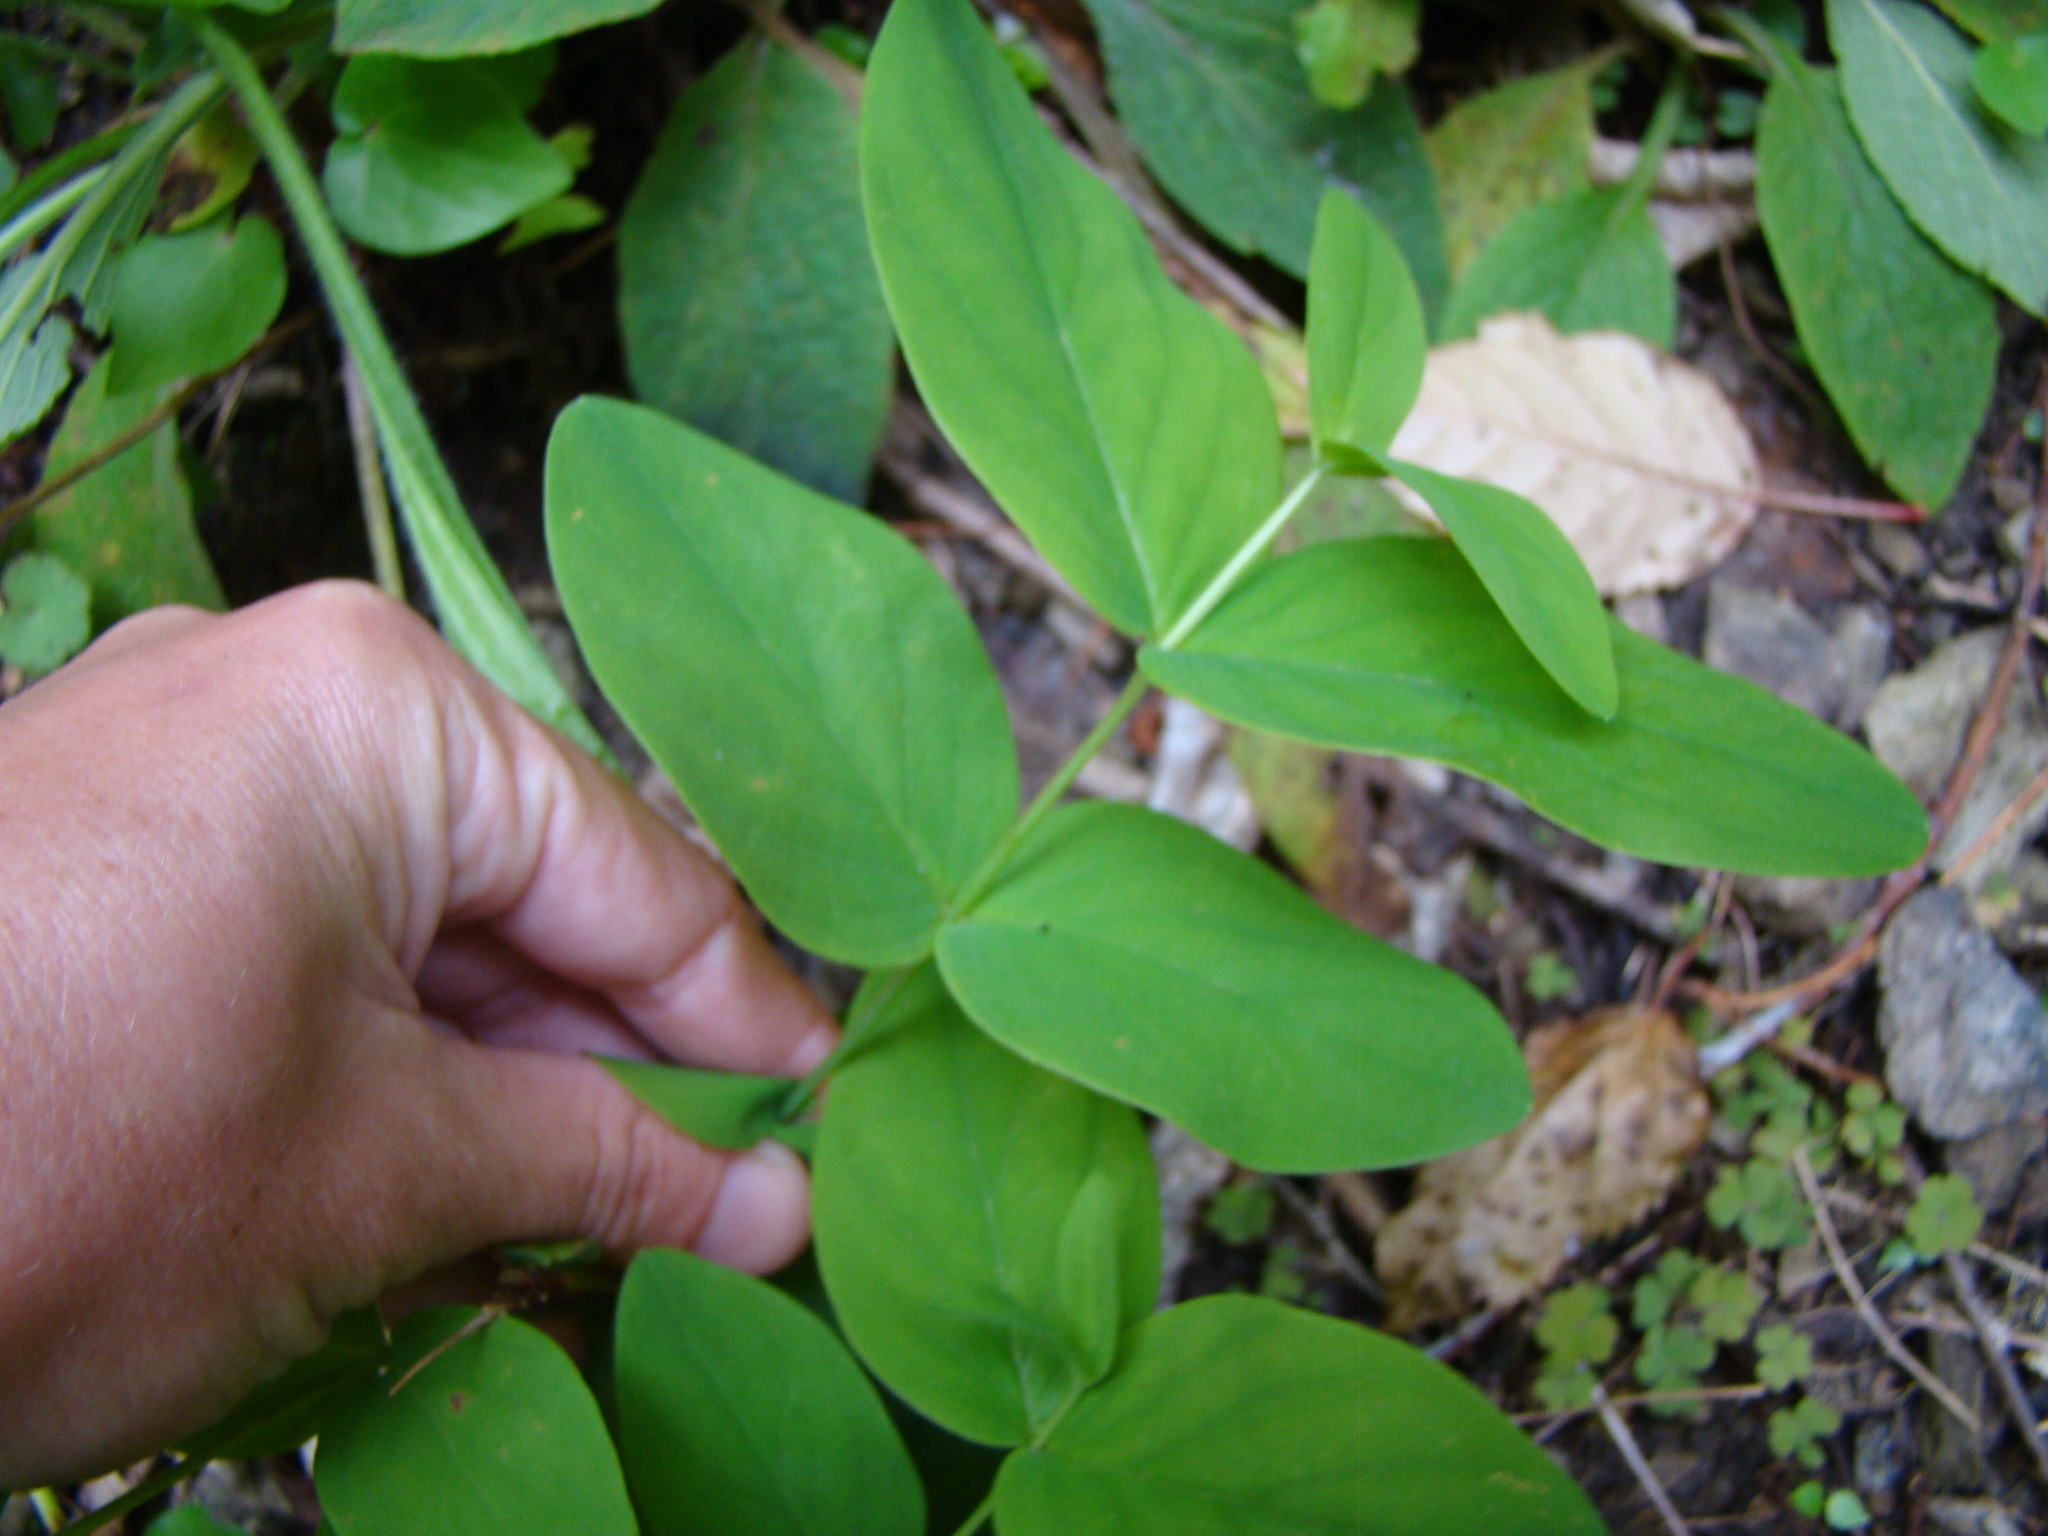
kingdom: Plantae
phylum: Tracheophyta
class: Magnoliopsida
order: Malpighiales
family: Hypericaceae
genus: Hypericum
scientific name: Hypericum androsaemum
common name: Sweet-amber
